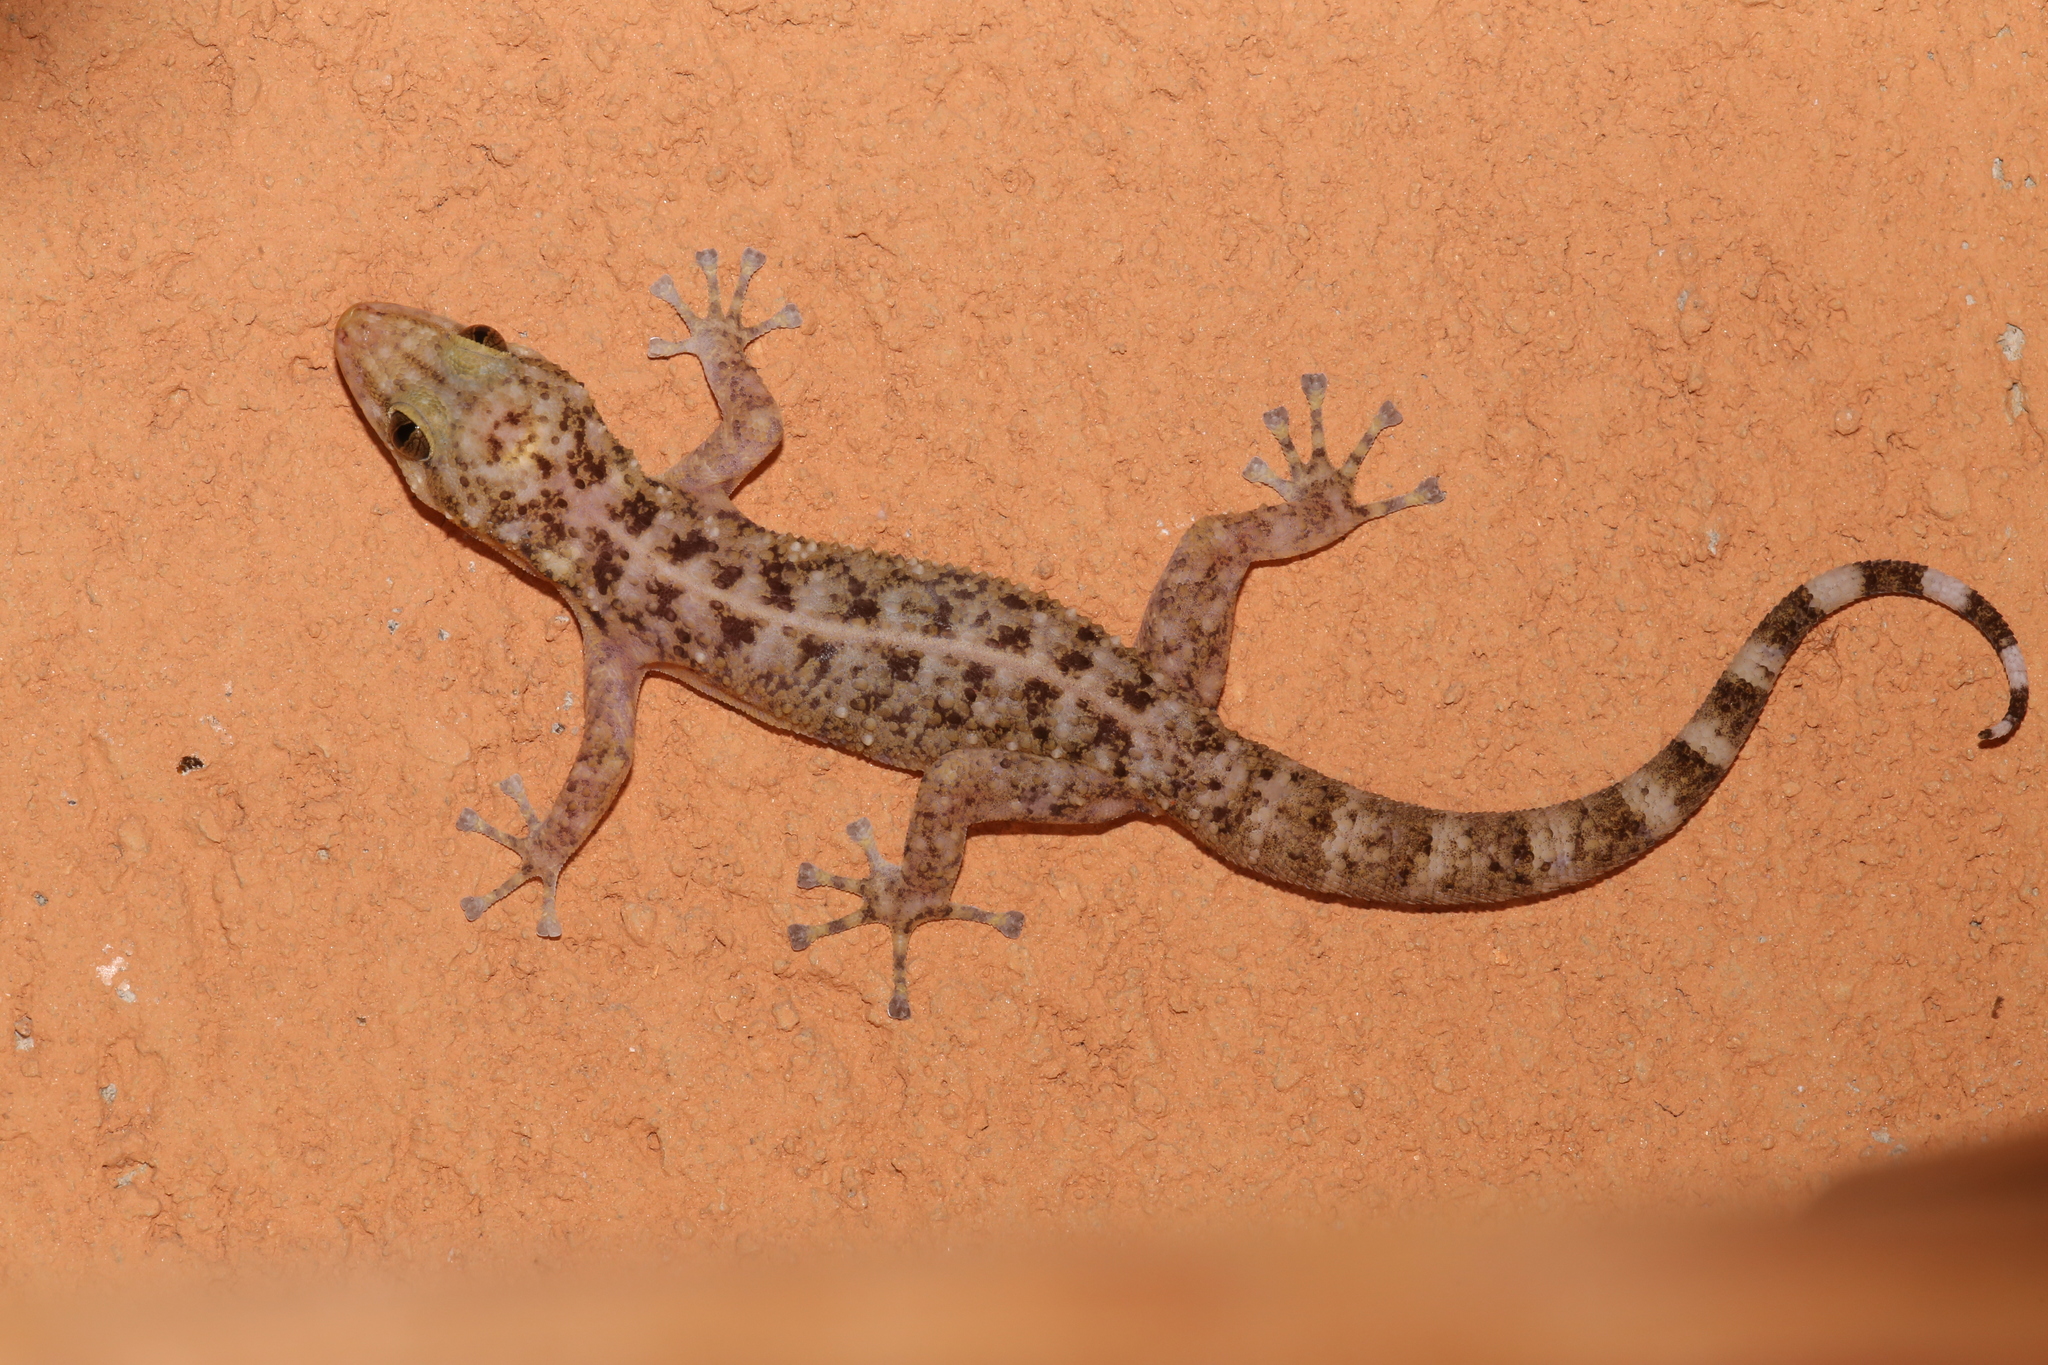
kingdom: Animalia
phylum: Chordata
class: Squamata
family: Phyllodactylidae
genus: Phyllodactylus
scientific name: Phyllodactylus tuberculosus
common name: Yellowbelly  gecko
